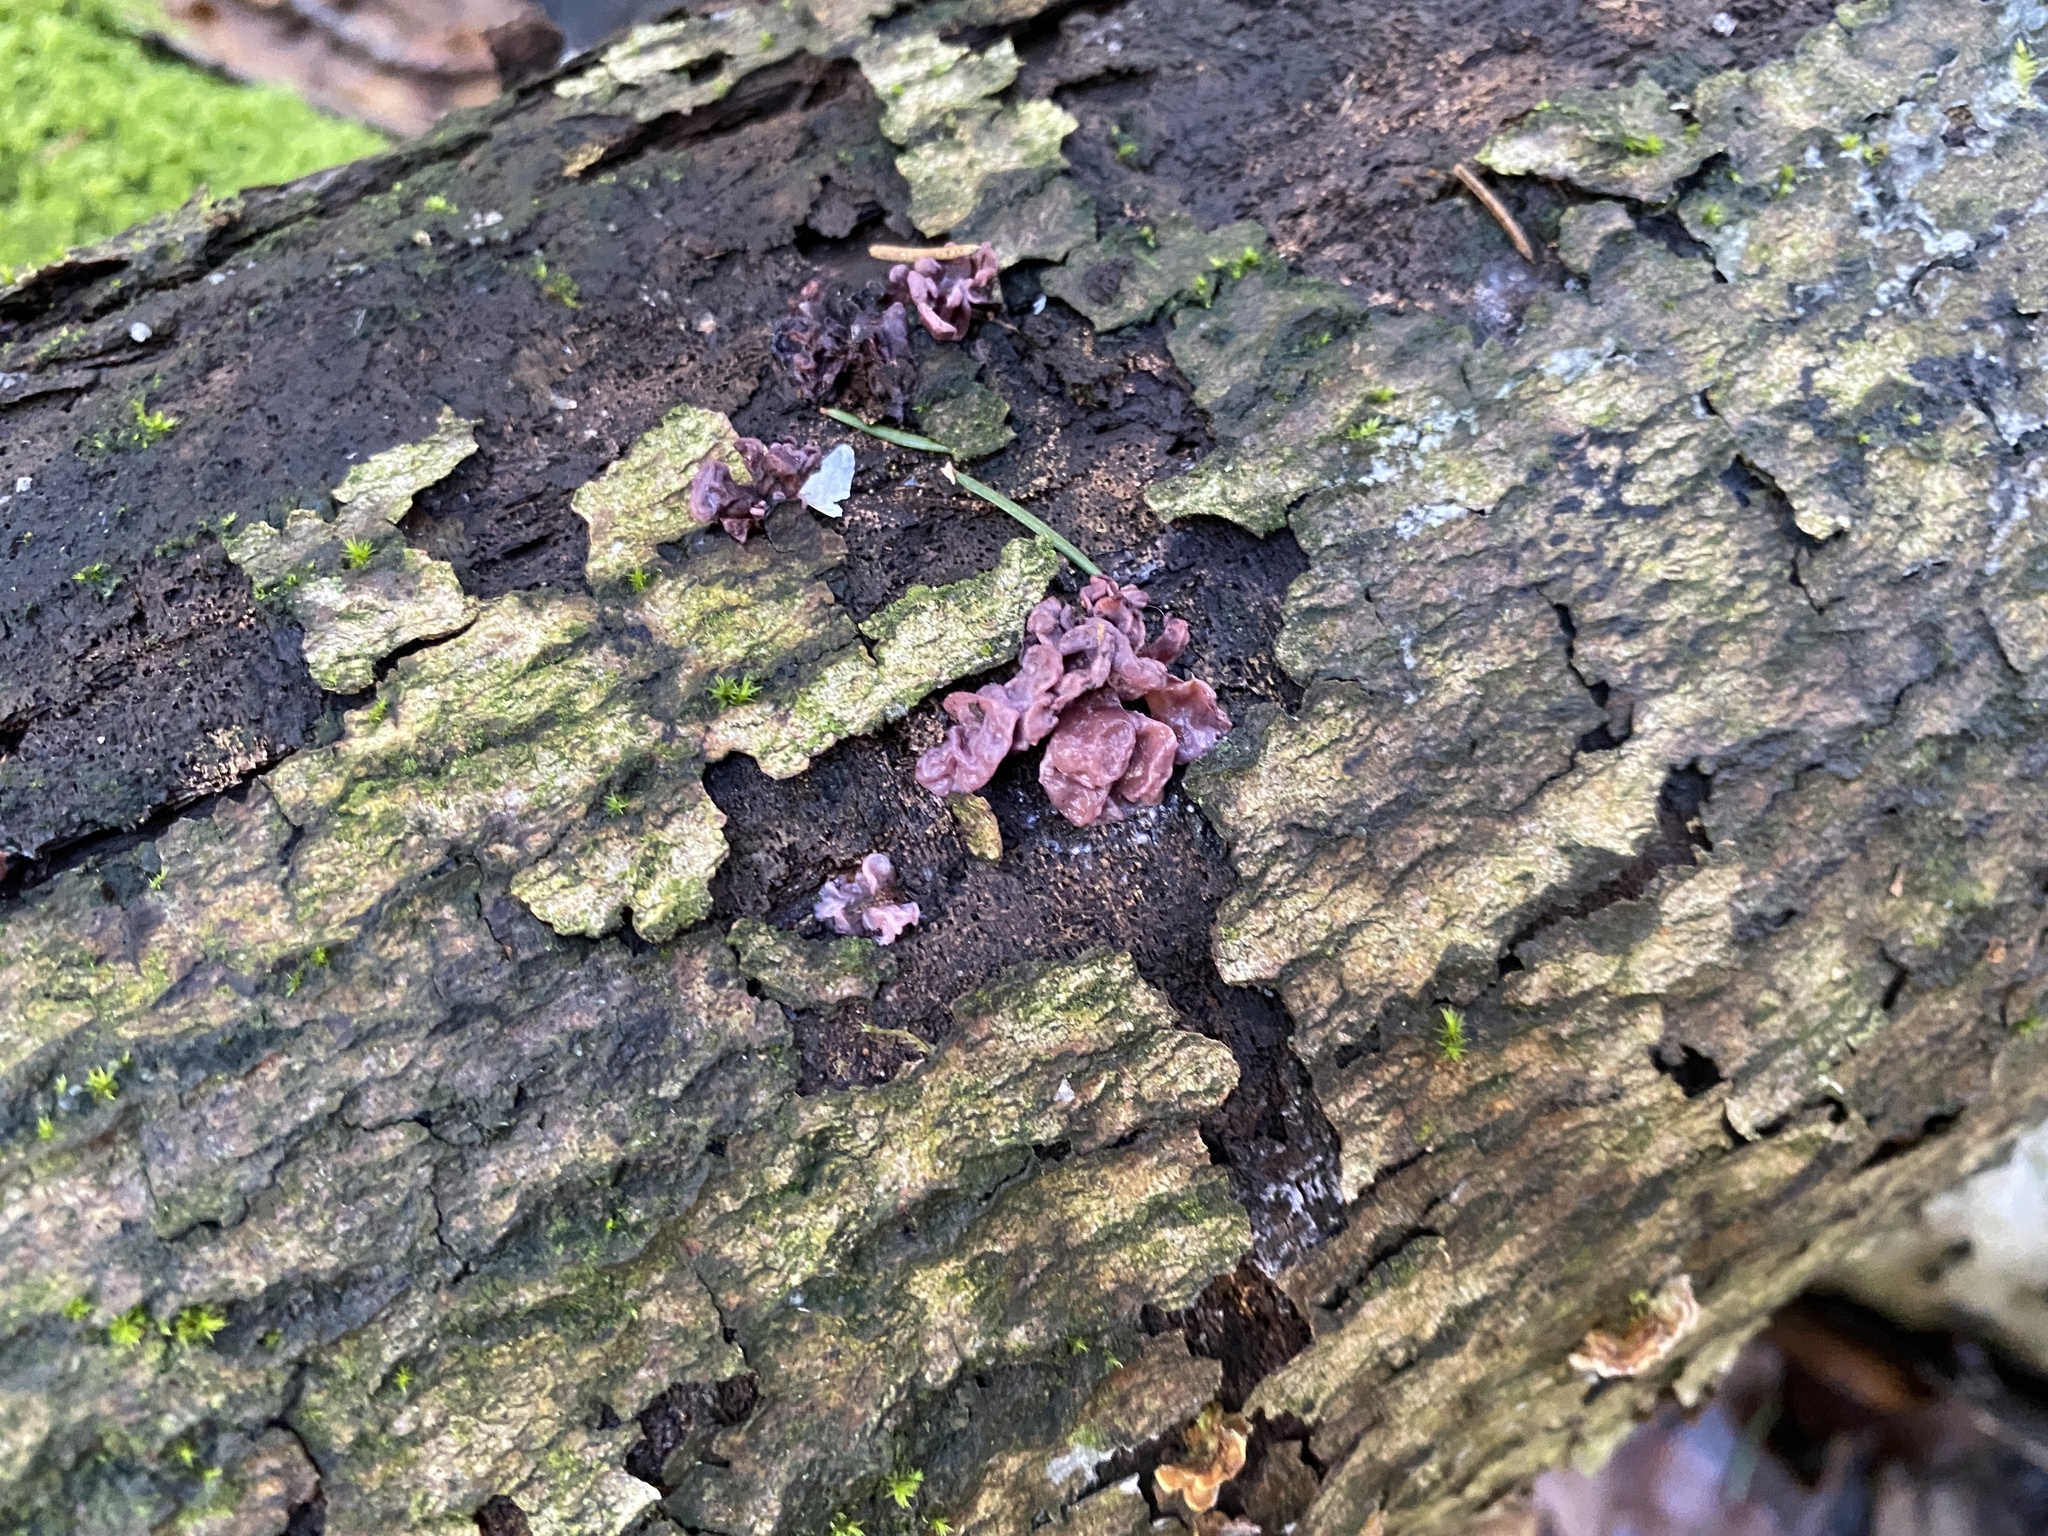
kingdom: Fungi
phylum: Ascomycota
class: Leotiomycetes
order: Helotiales
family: Gelatinodiscaceae
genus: Ascocoryne
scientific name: Ascocoryne sarcoides
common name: Purple jellydisc
